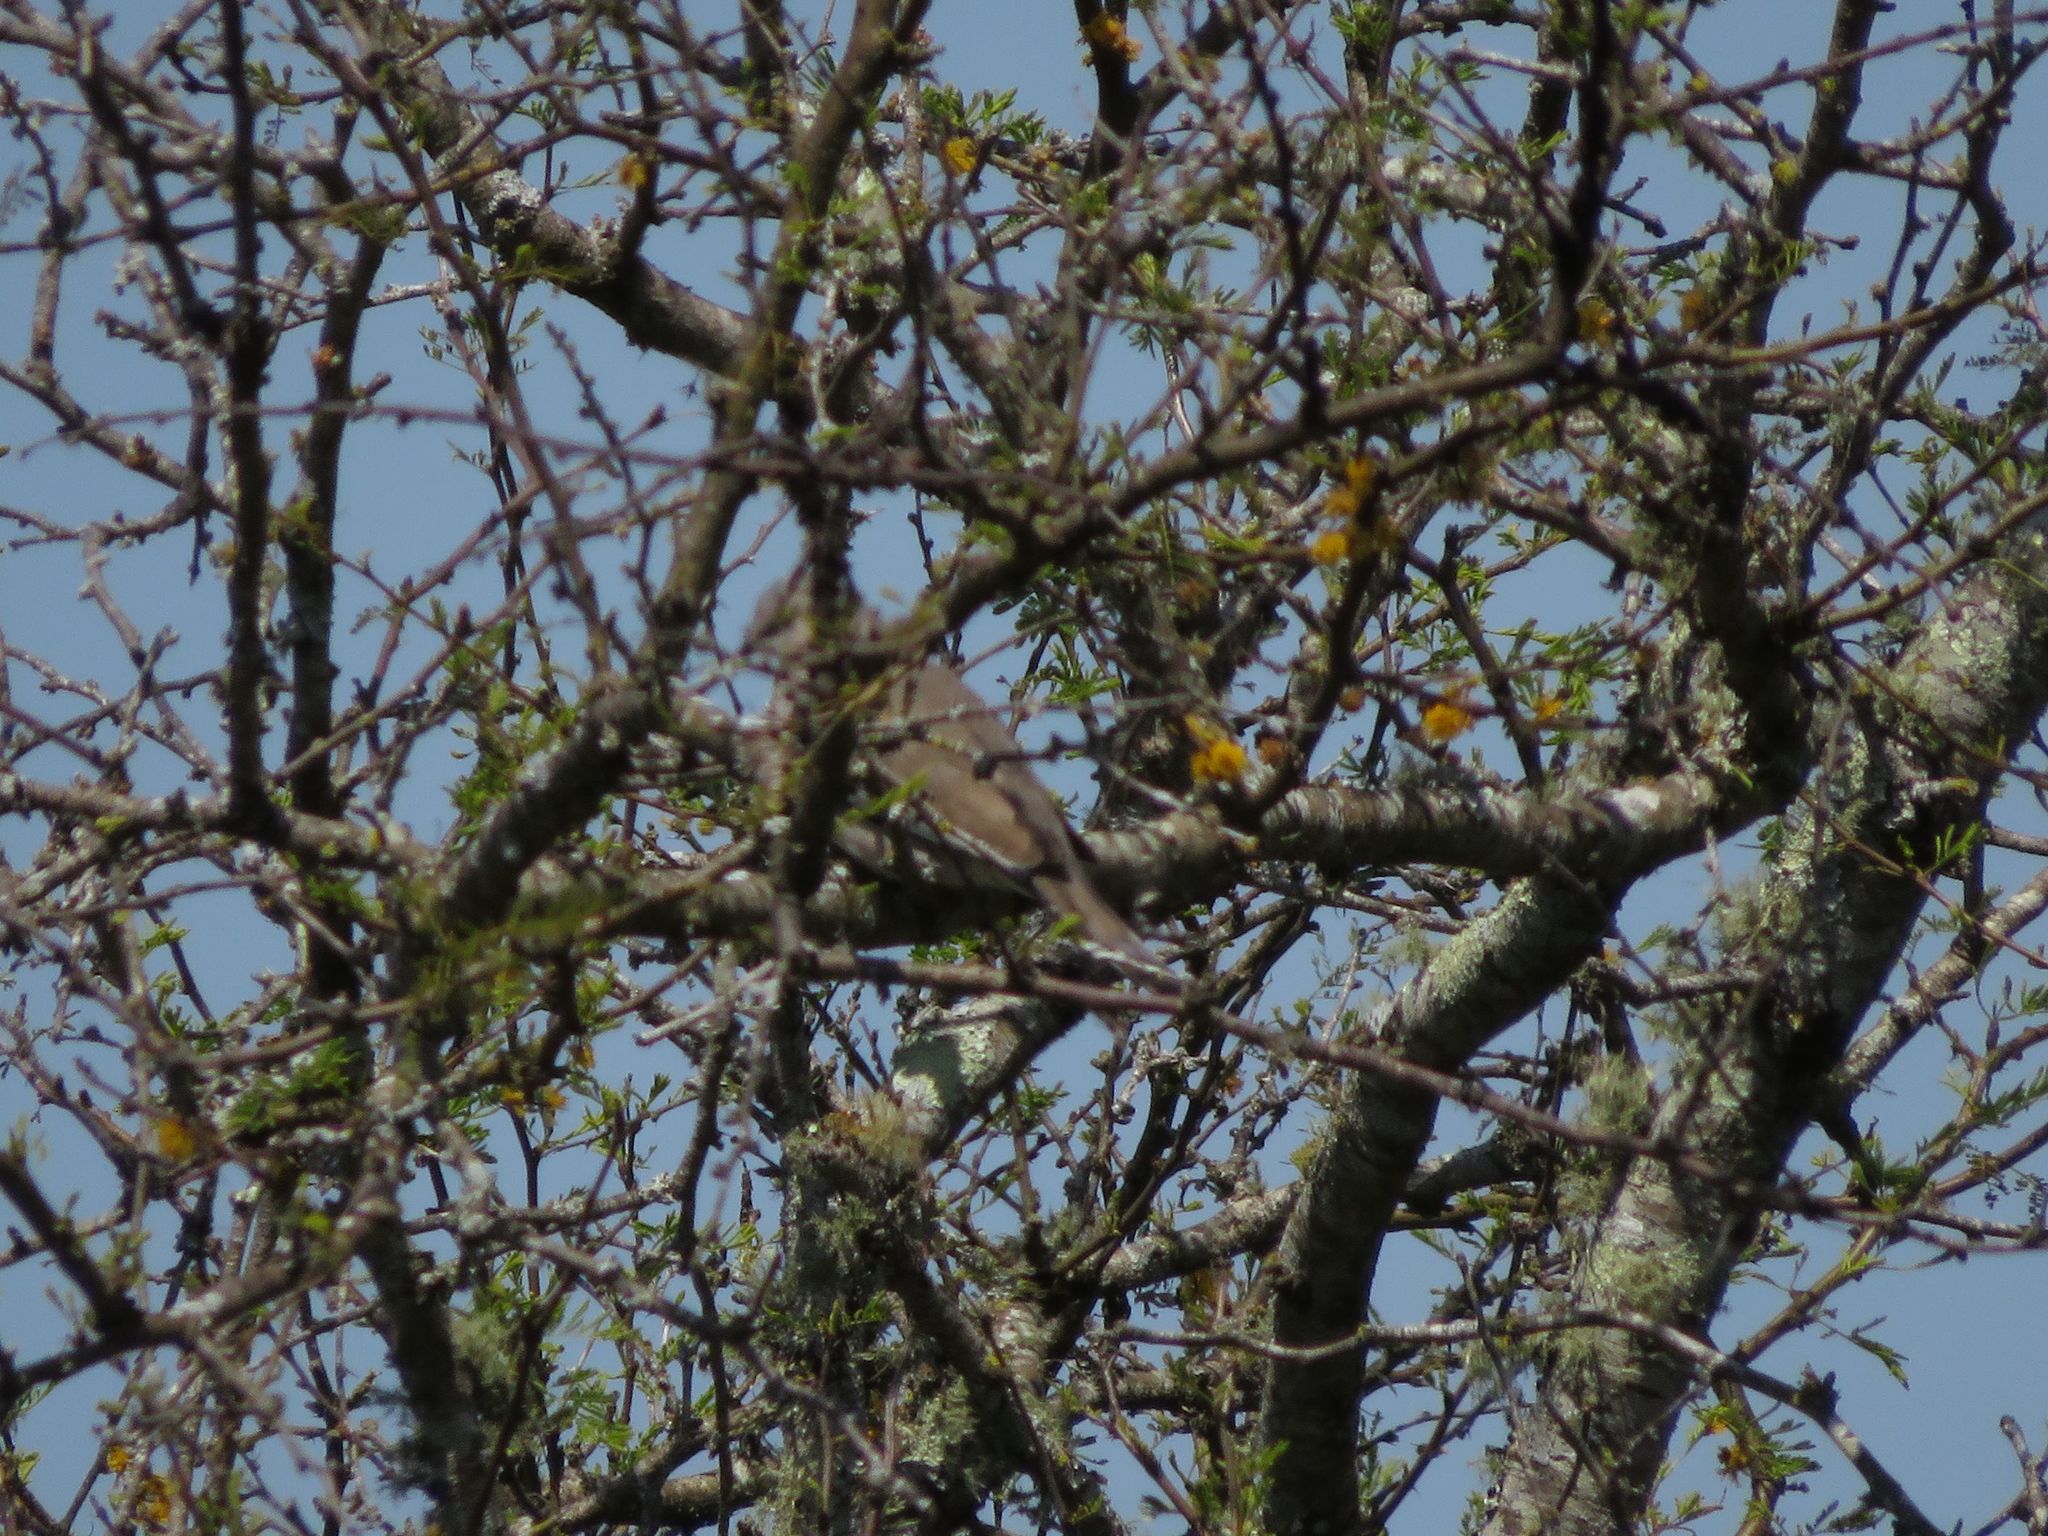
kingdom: Animalia
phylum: Chordata
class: Aves
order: Columbiformes
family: Columbidae
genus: Columbina
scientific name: Columbina picui
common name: Picui ground dove
